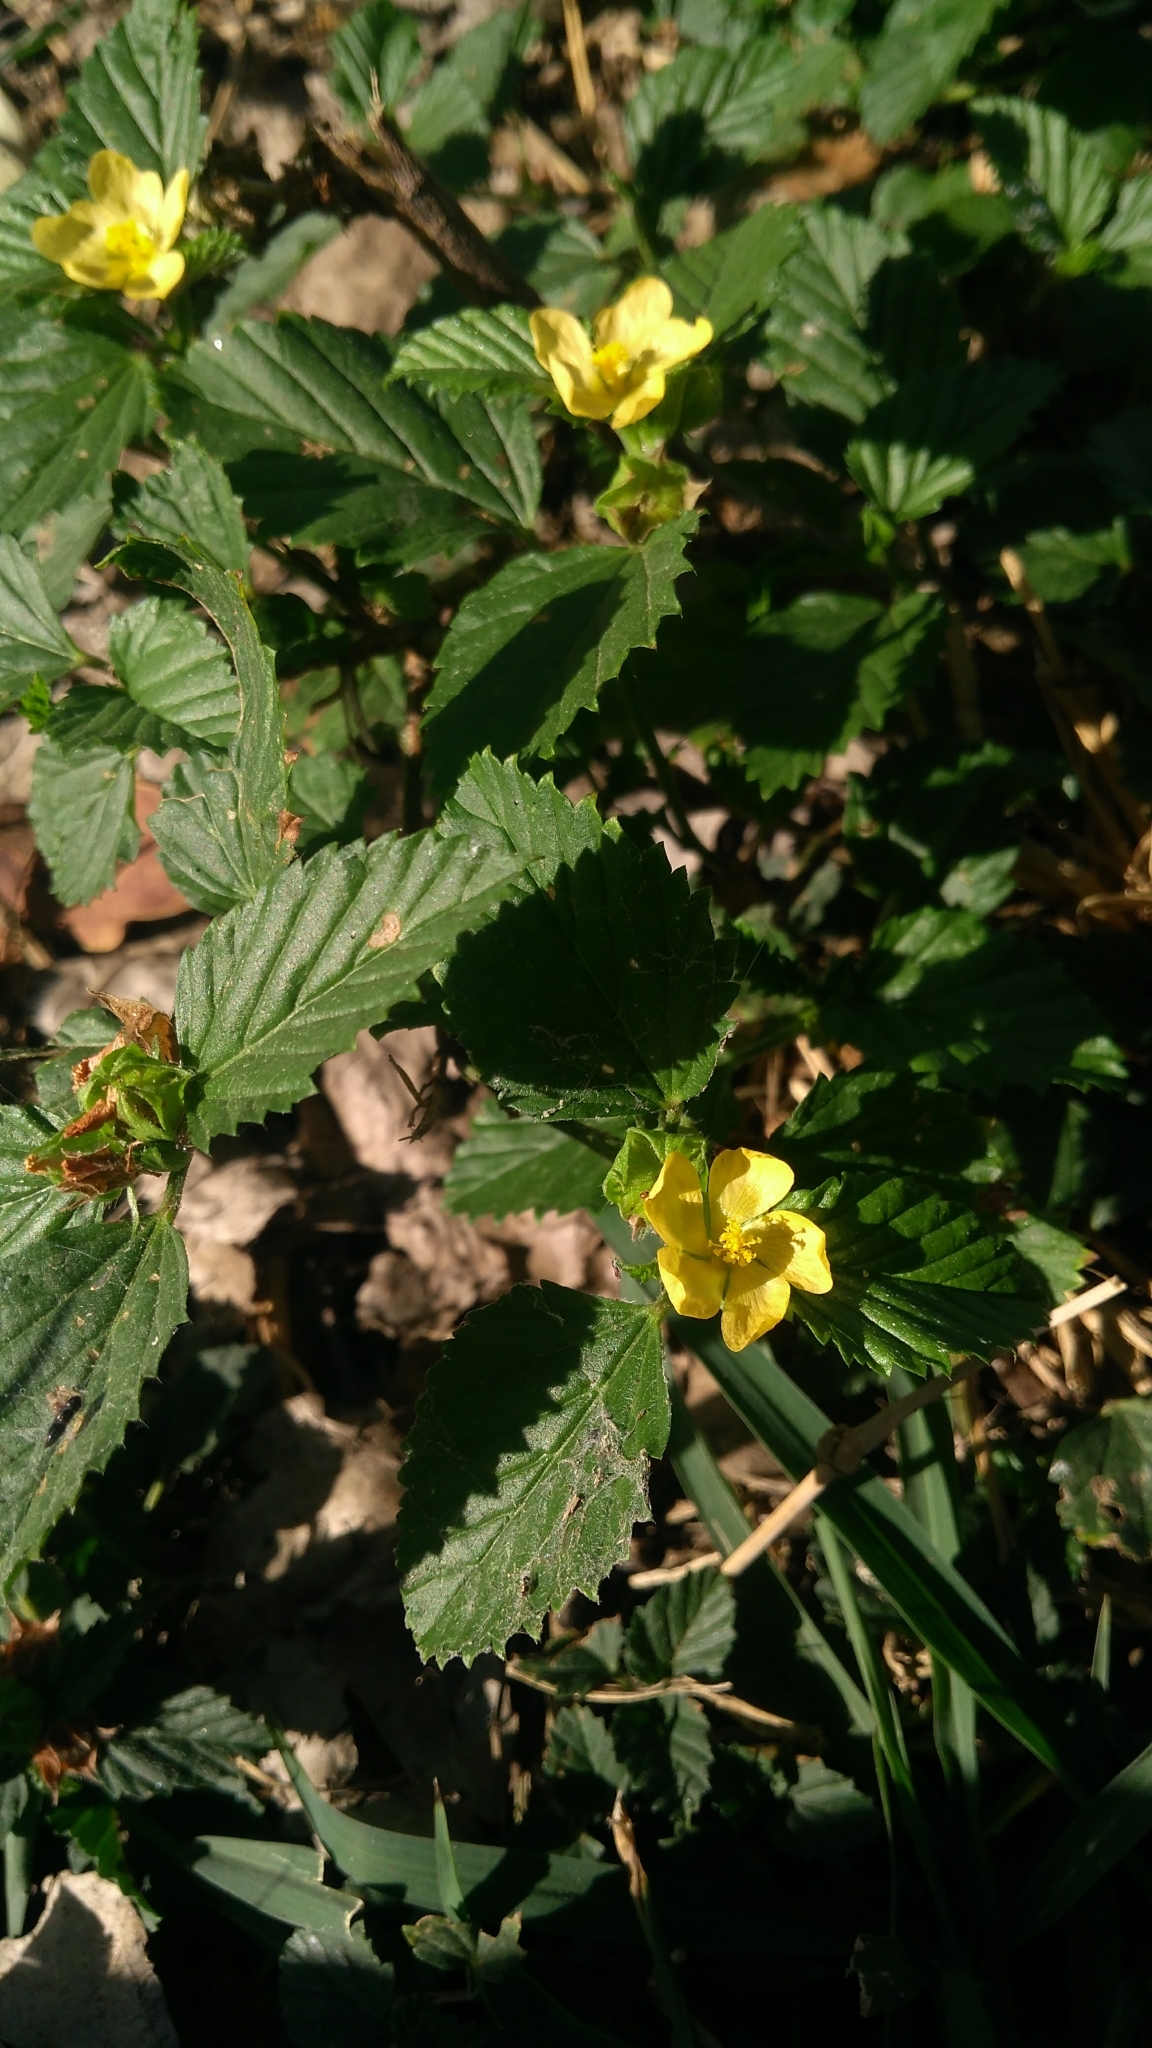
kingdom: Plantae
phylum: Tracheophyta
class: Magnoliopsida
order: Malvales
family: Malvaceae
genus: Malvastrum
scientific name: Malvastrum coromandelianum
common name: Threelobe false mallow
